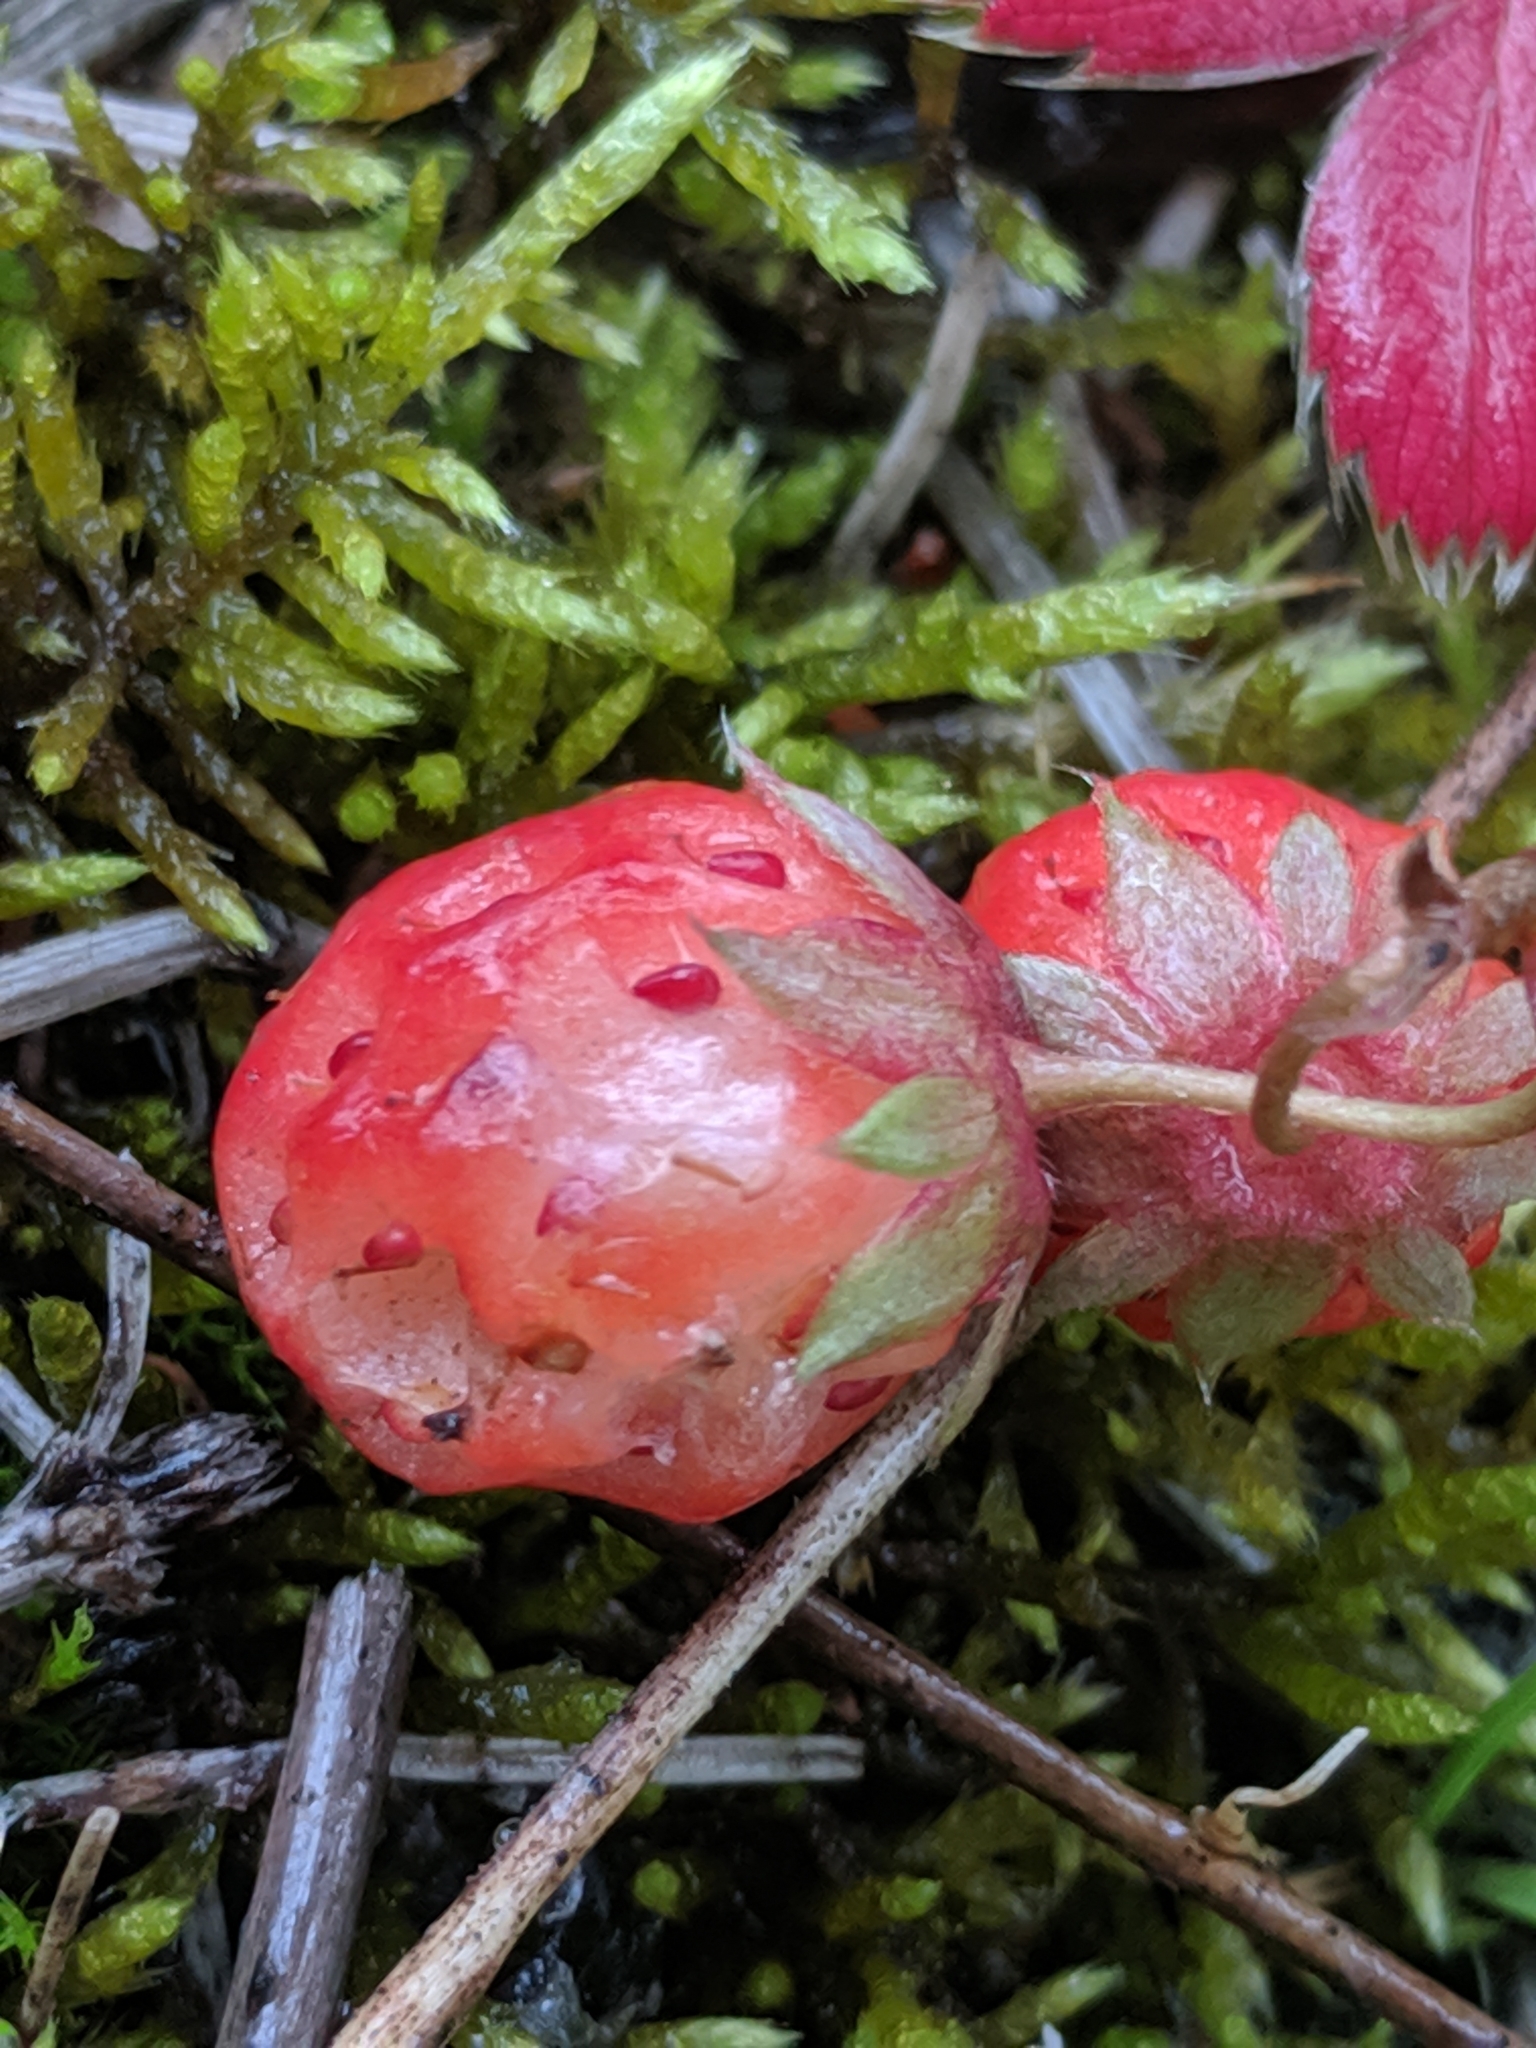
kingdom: Plantae
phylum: Tracheophyta
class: Magnoliopsida
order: Rosales
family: Rosaceae
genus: Fragaria
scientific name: Fragaria virginiana
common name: Thickleaved wild strawberry
